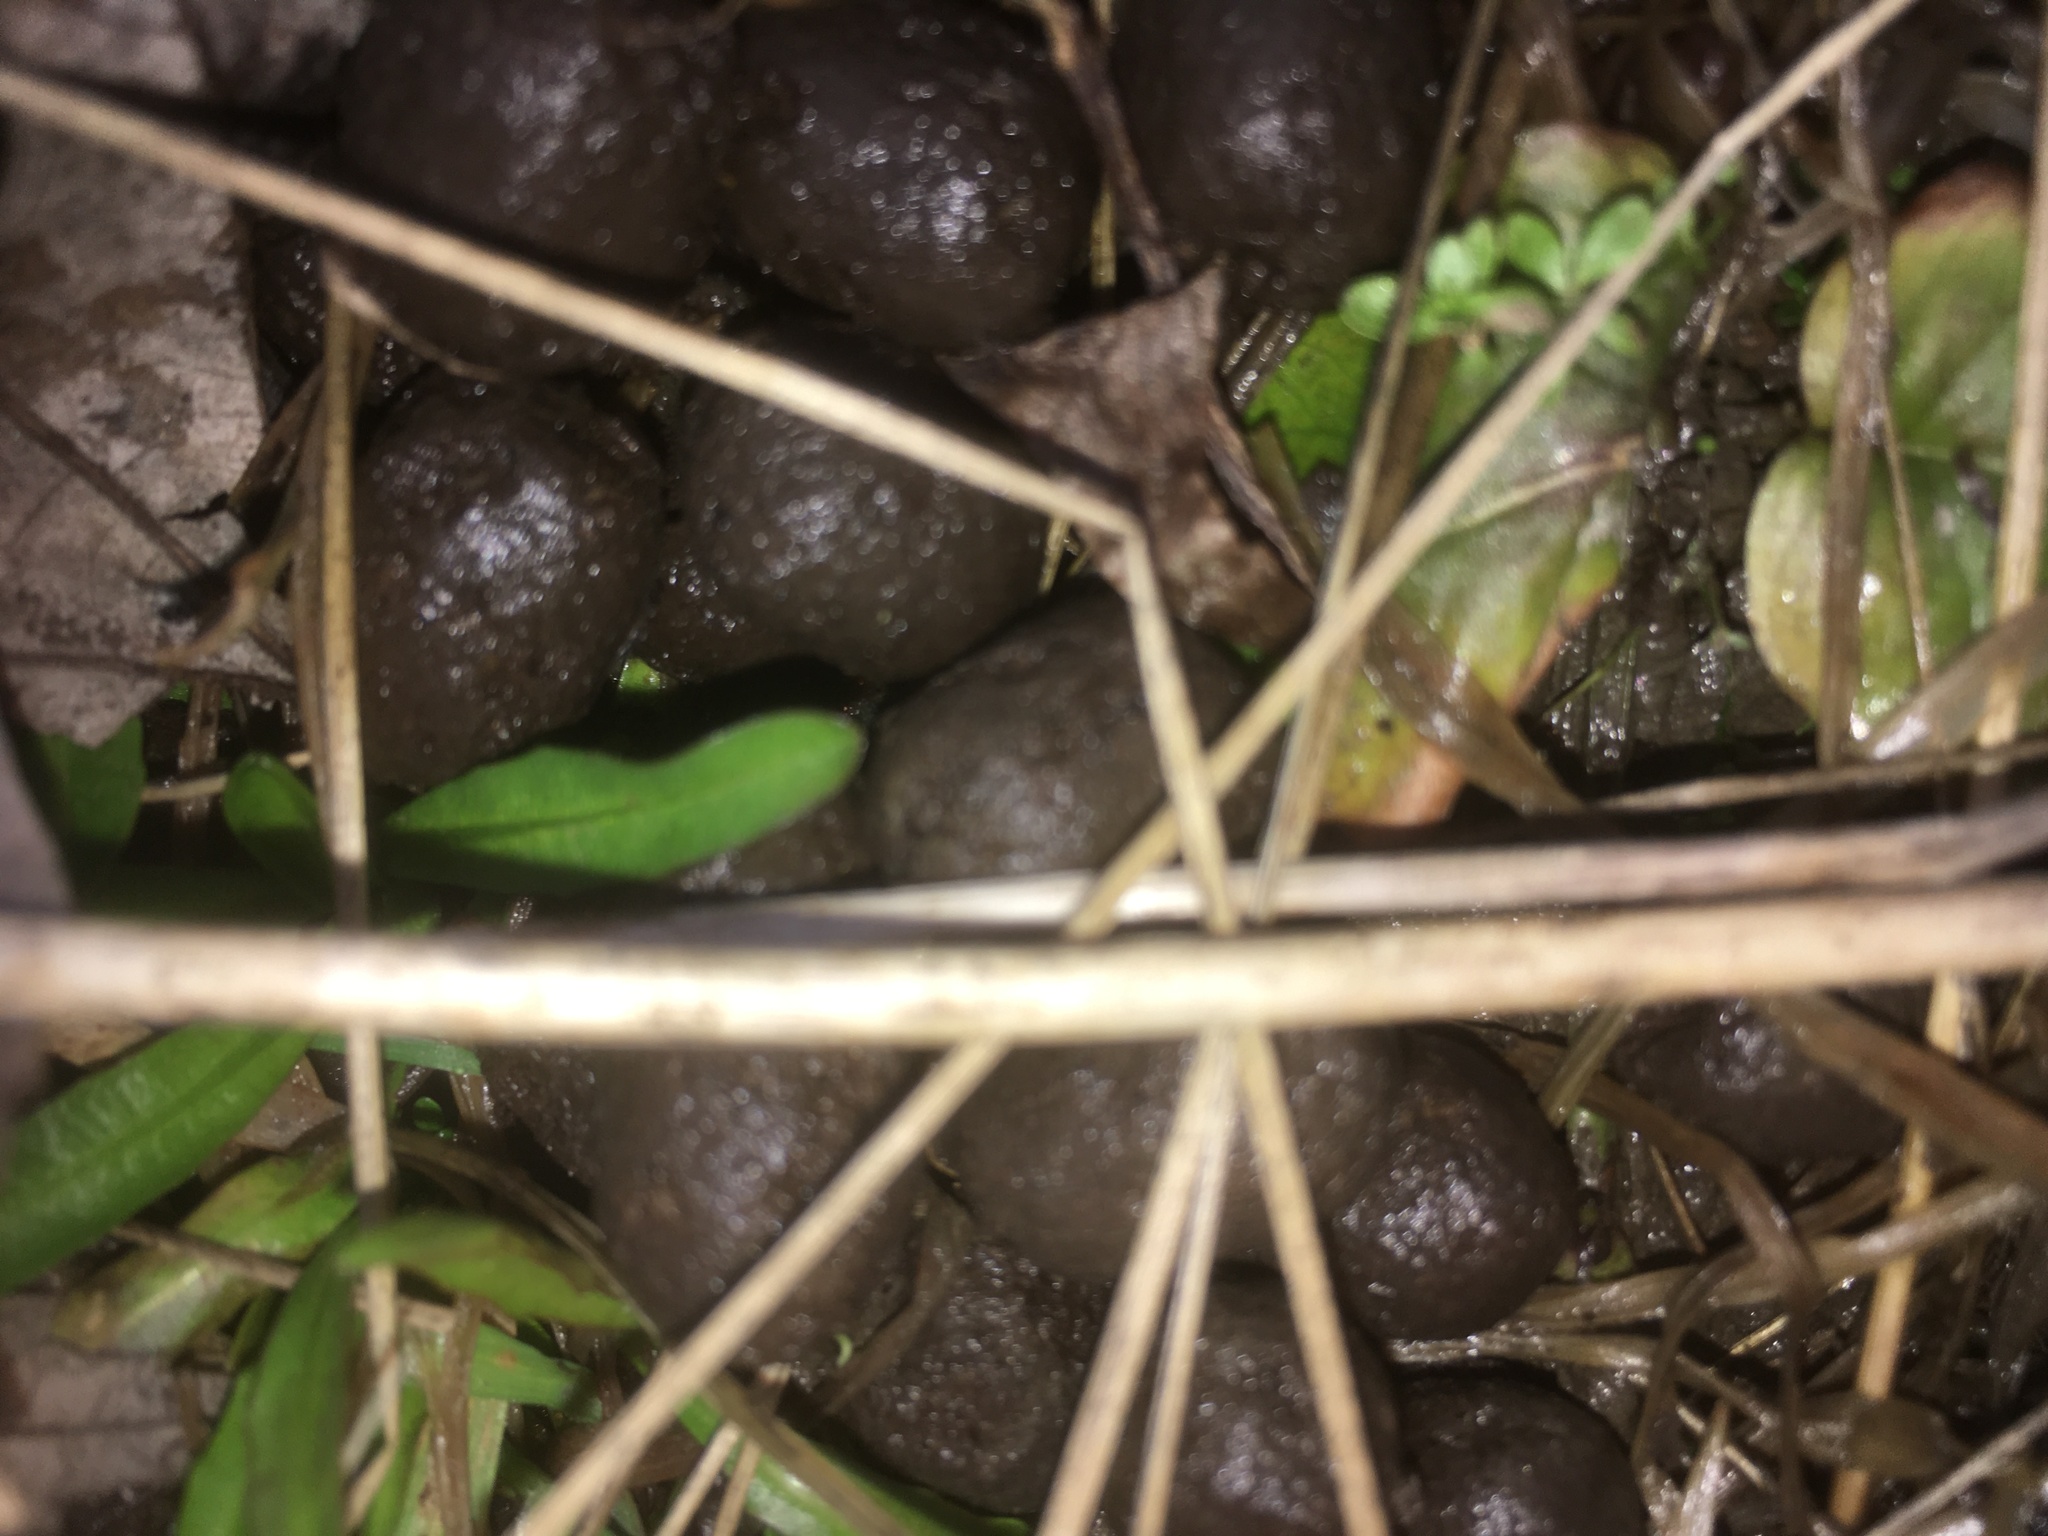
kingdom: Animalia
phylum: Chordata
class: Mammalia
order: Artiodactyla
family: Cervidae
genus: Odocoileus
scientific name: Odocoileus virginianus
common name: White-tailed deer
